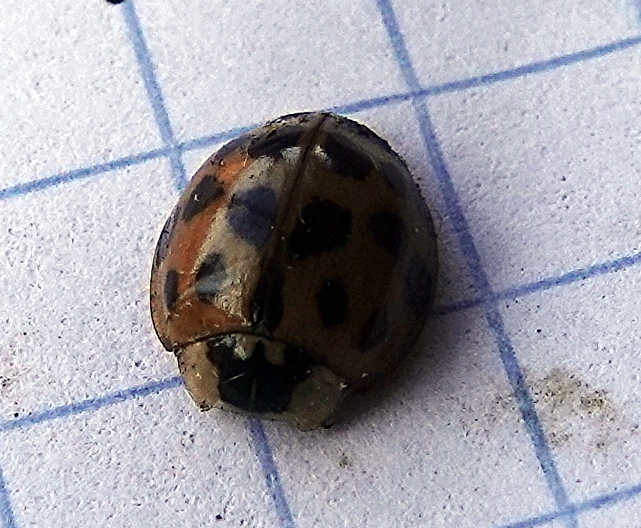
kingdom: Animalia
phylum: Arthropoda
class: Insecta
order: Coleoptera
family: Coccinellidae
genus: Harmonia
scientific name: Harmonia axyridis
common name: Harlequin ladybird
